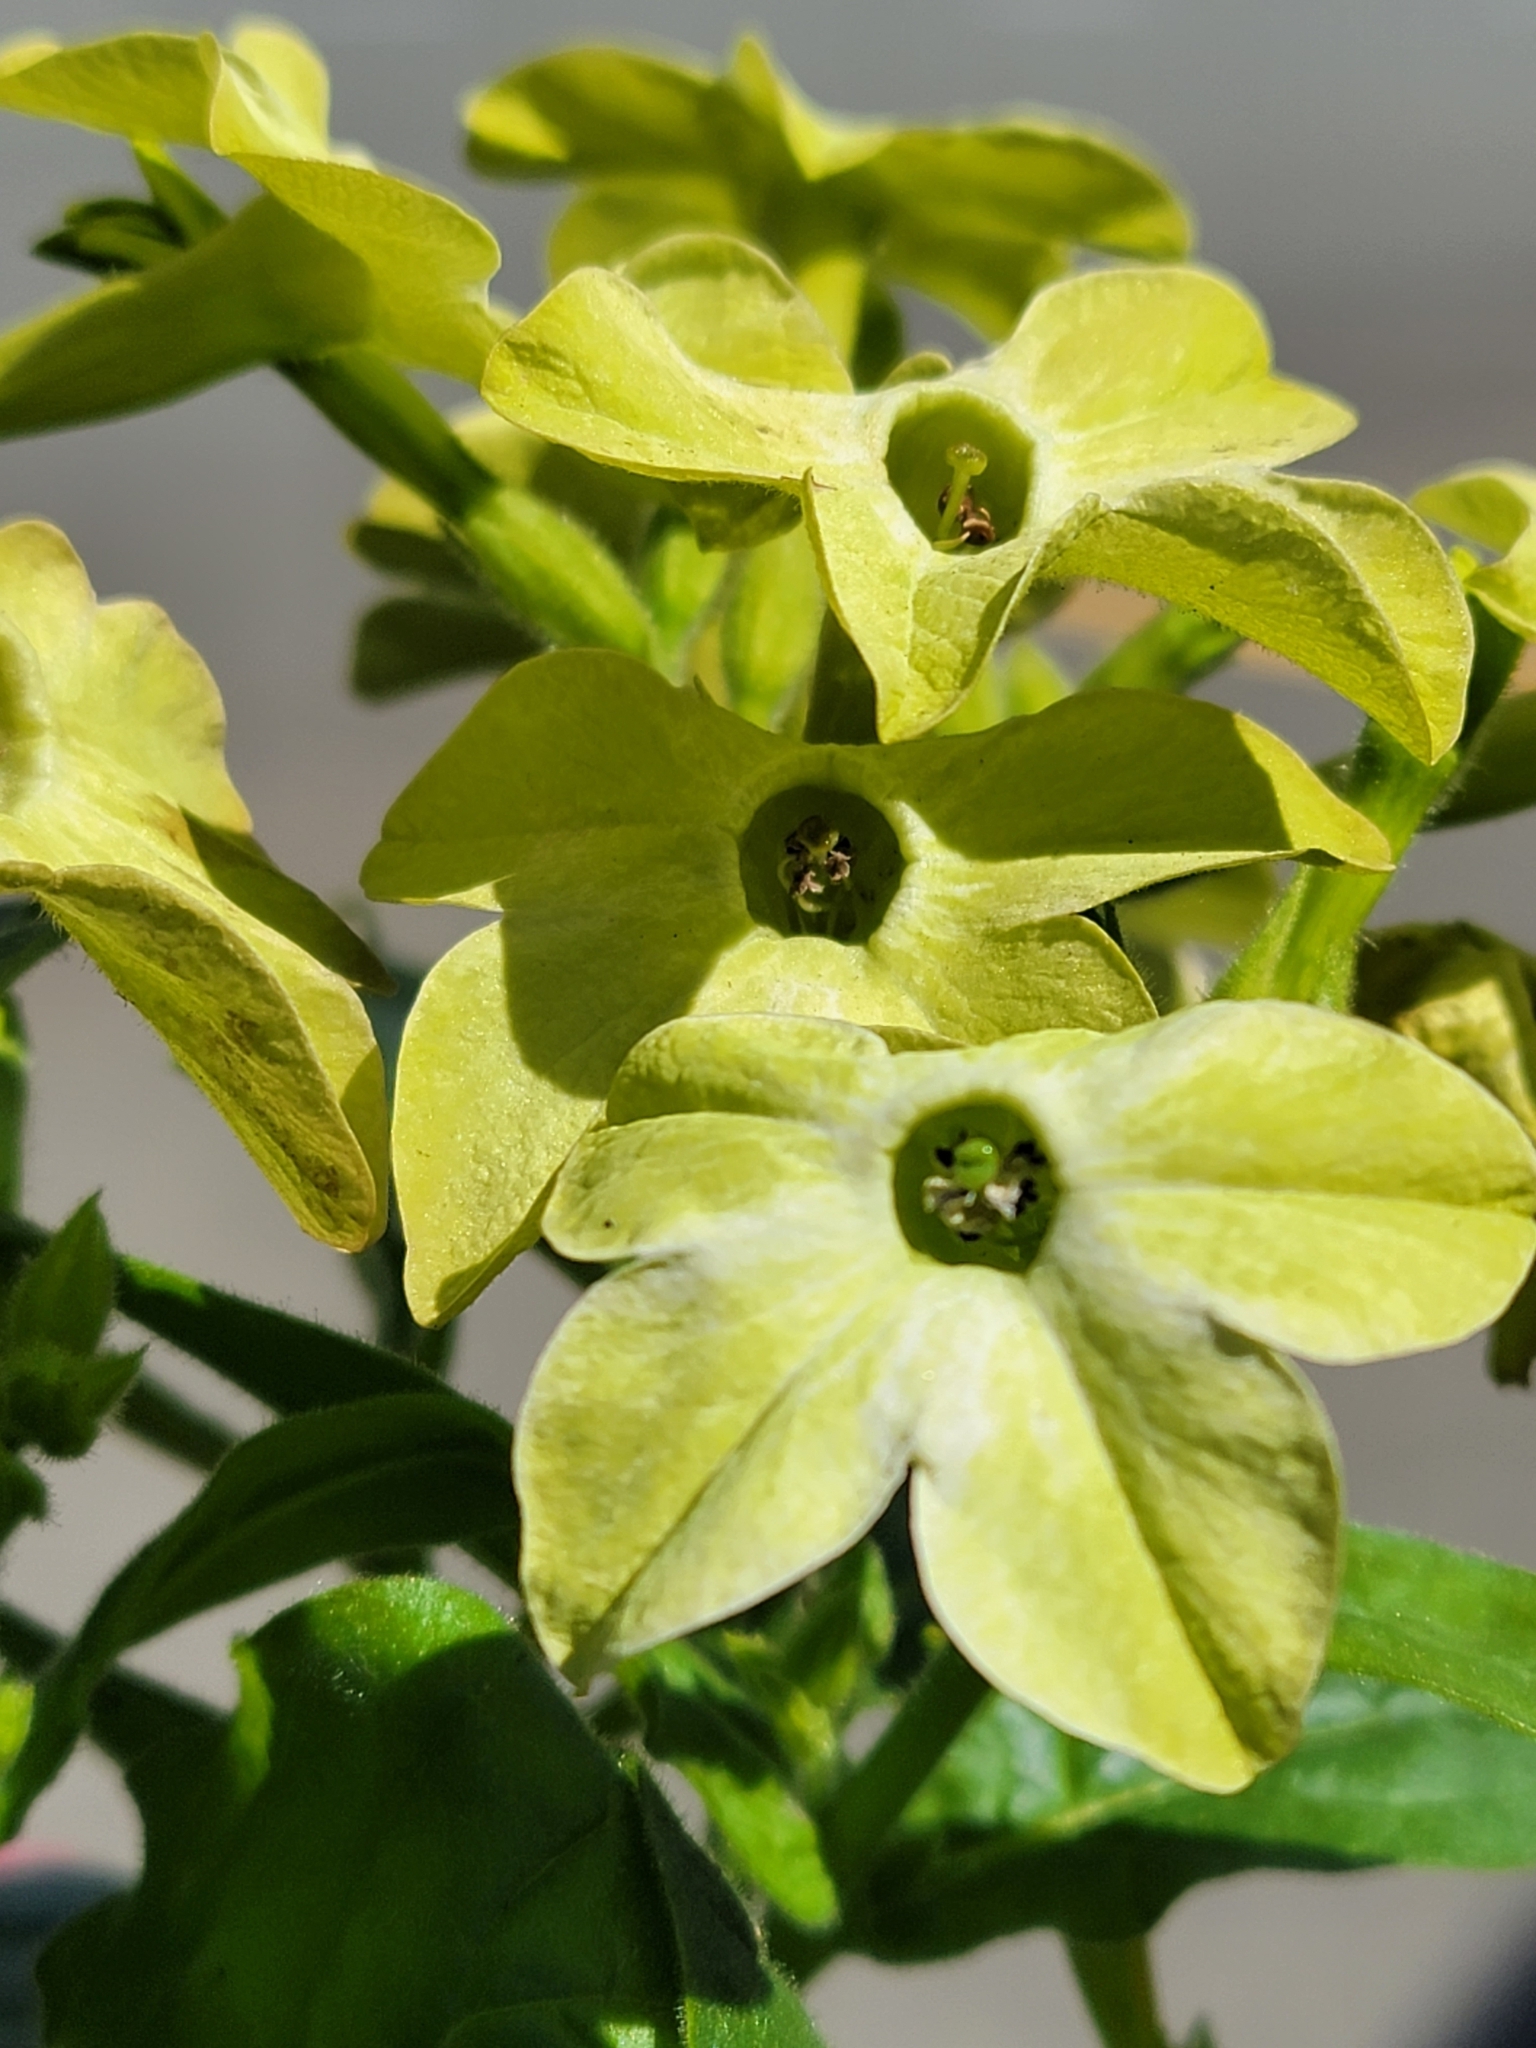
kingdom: Plantae
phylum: Tracheophyta
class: Magnoliopsida
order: Solanales
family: Solanaceae
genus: Nicotiana
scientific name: Nicotiana alata
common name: Jasmine tobacco
